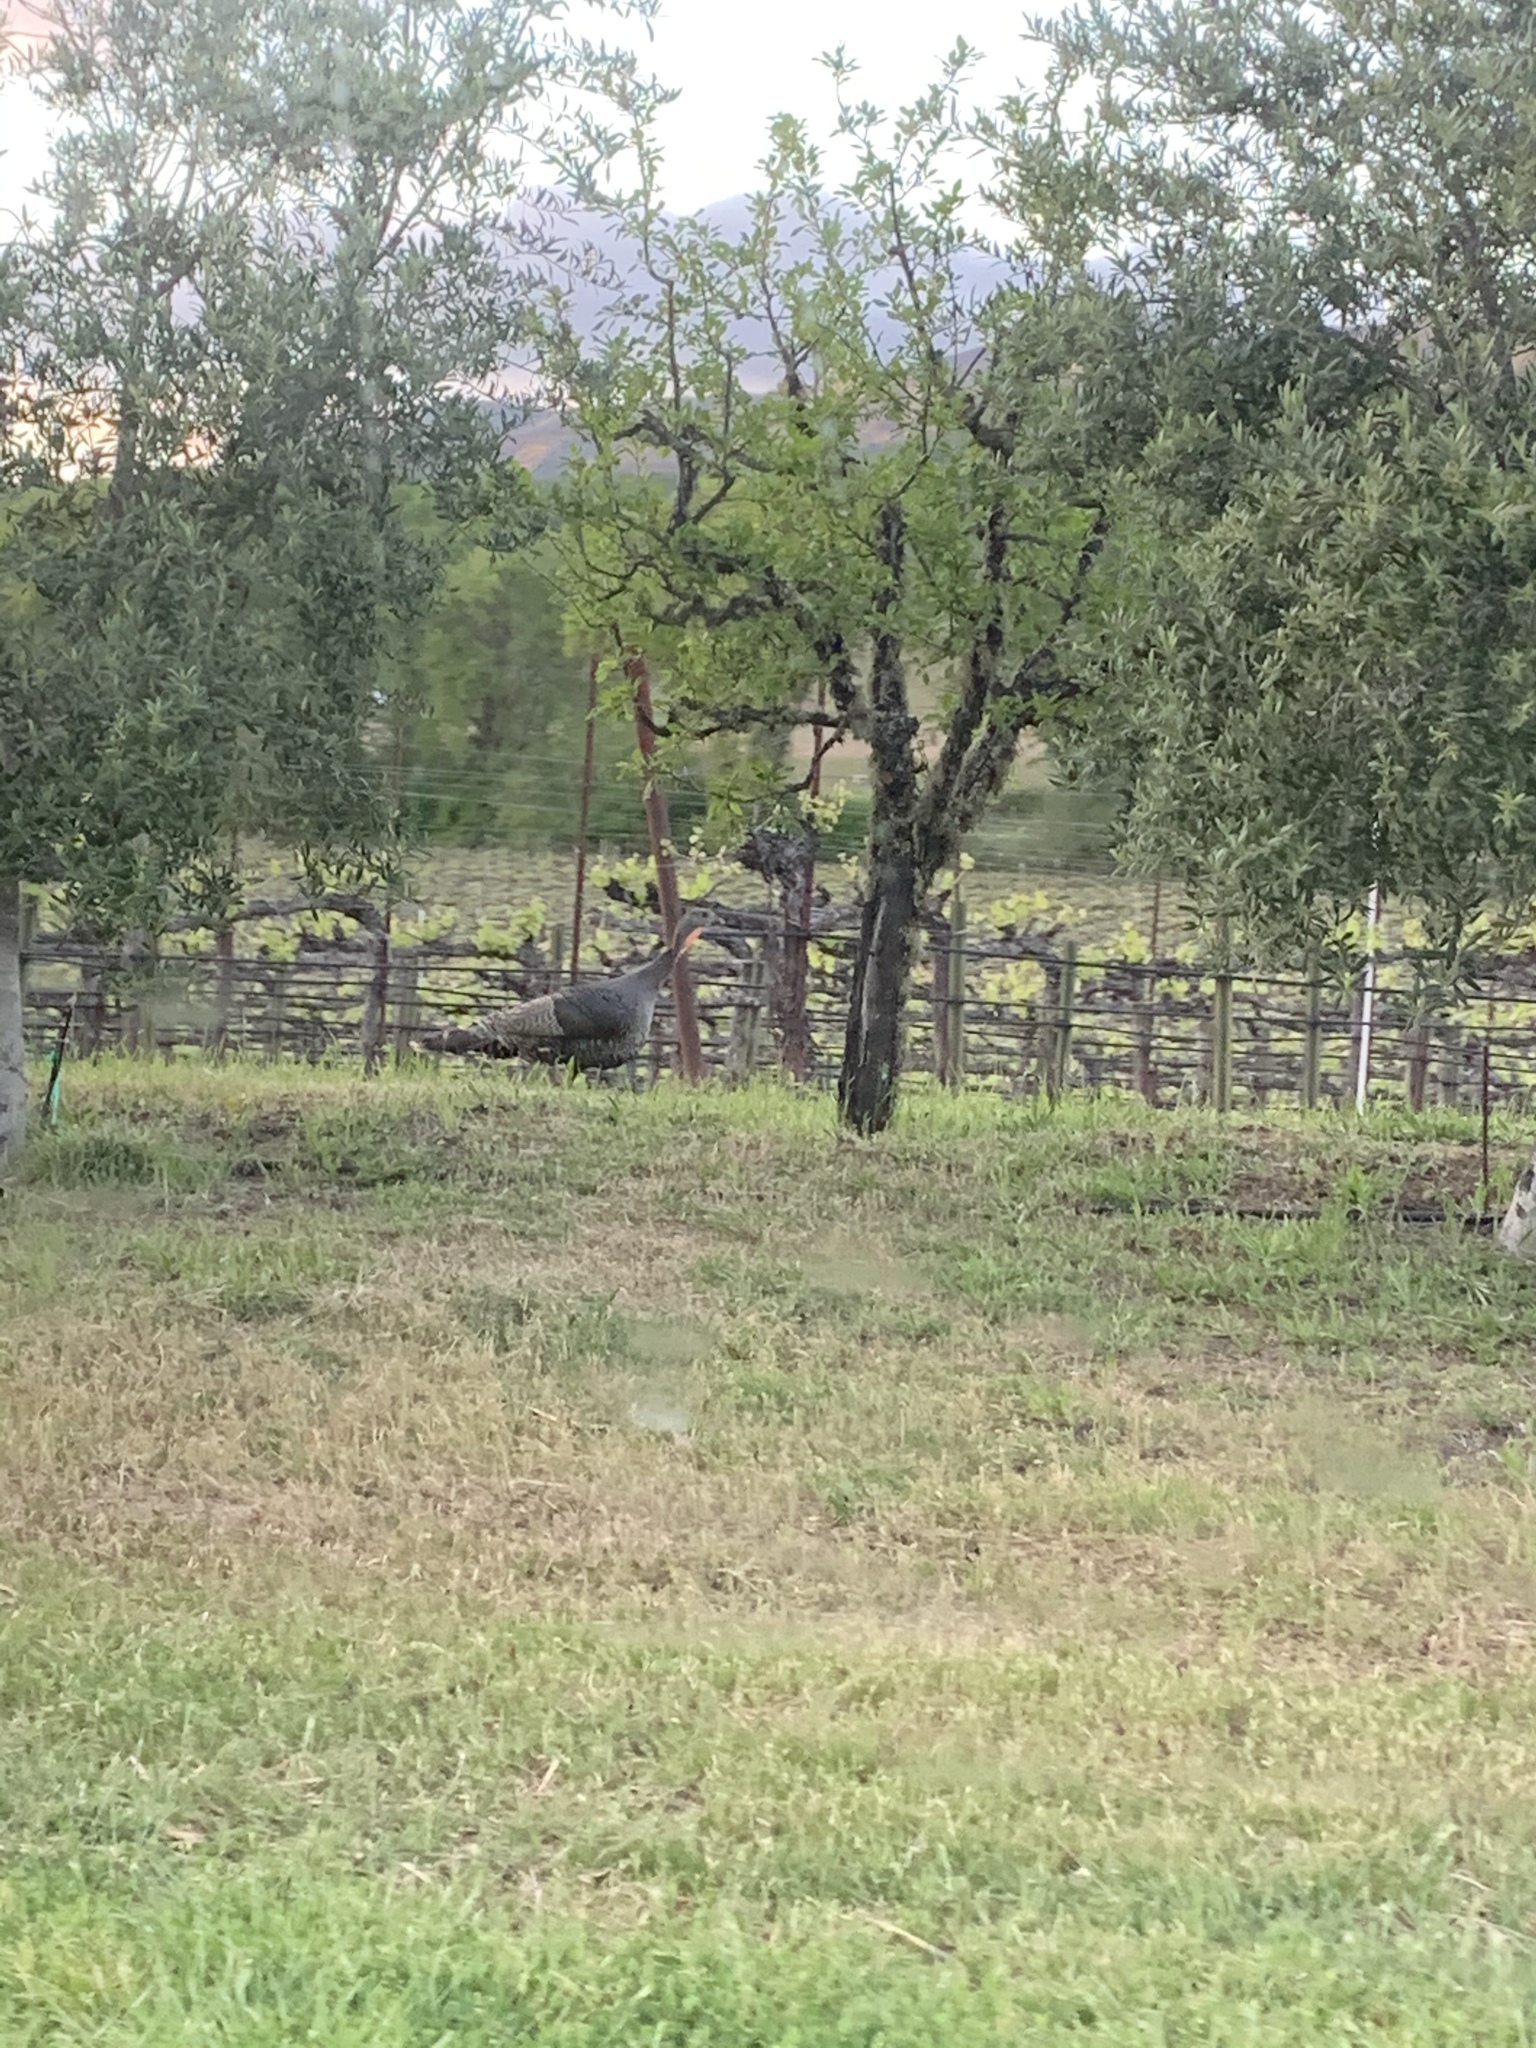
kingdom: Animalia
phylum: Chordata
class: Aves
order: Galliformes
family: Phasianidae
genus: Meleagris
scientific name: Meleagris gallopavo
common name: Wild turkey
